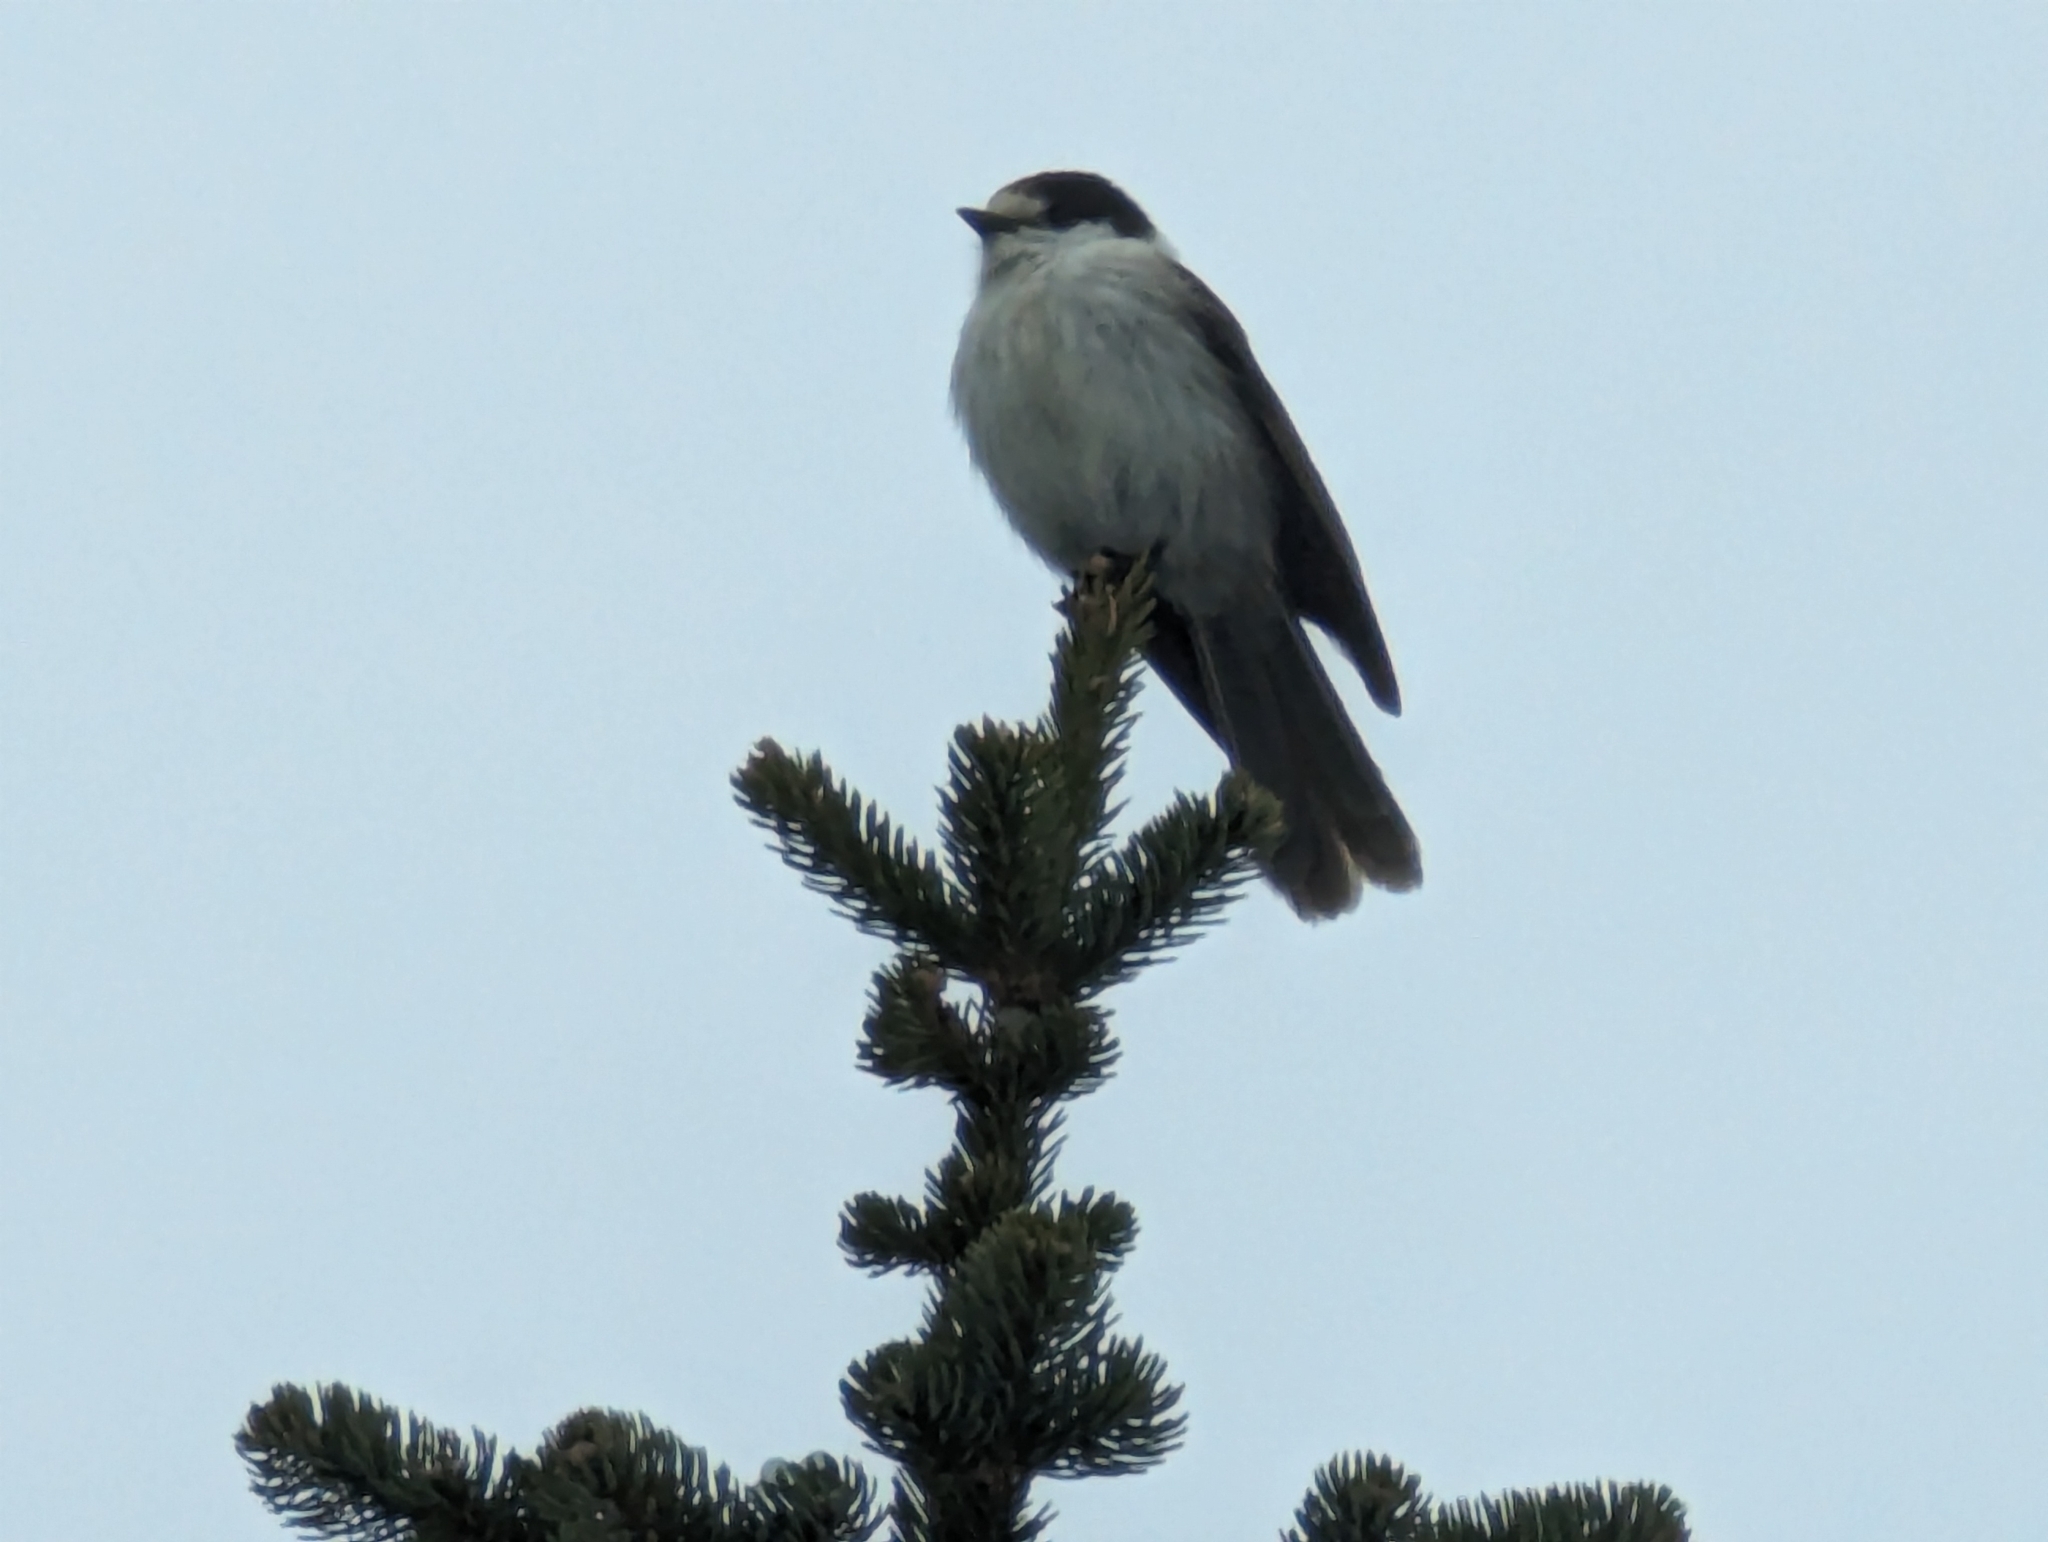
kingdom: Animalia
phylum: Chordata
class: Aves
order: Passeriformes
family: Corvidae
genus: Perisoreus
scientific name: Perisoreus canadensis
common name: Gray jay
